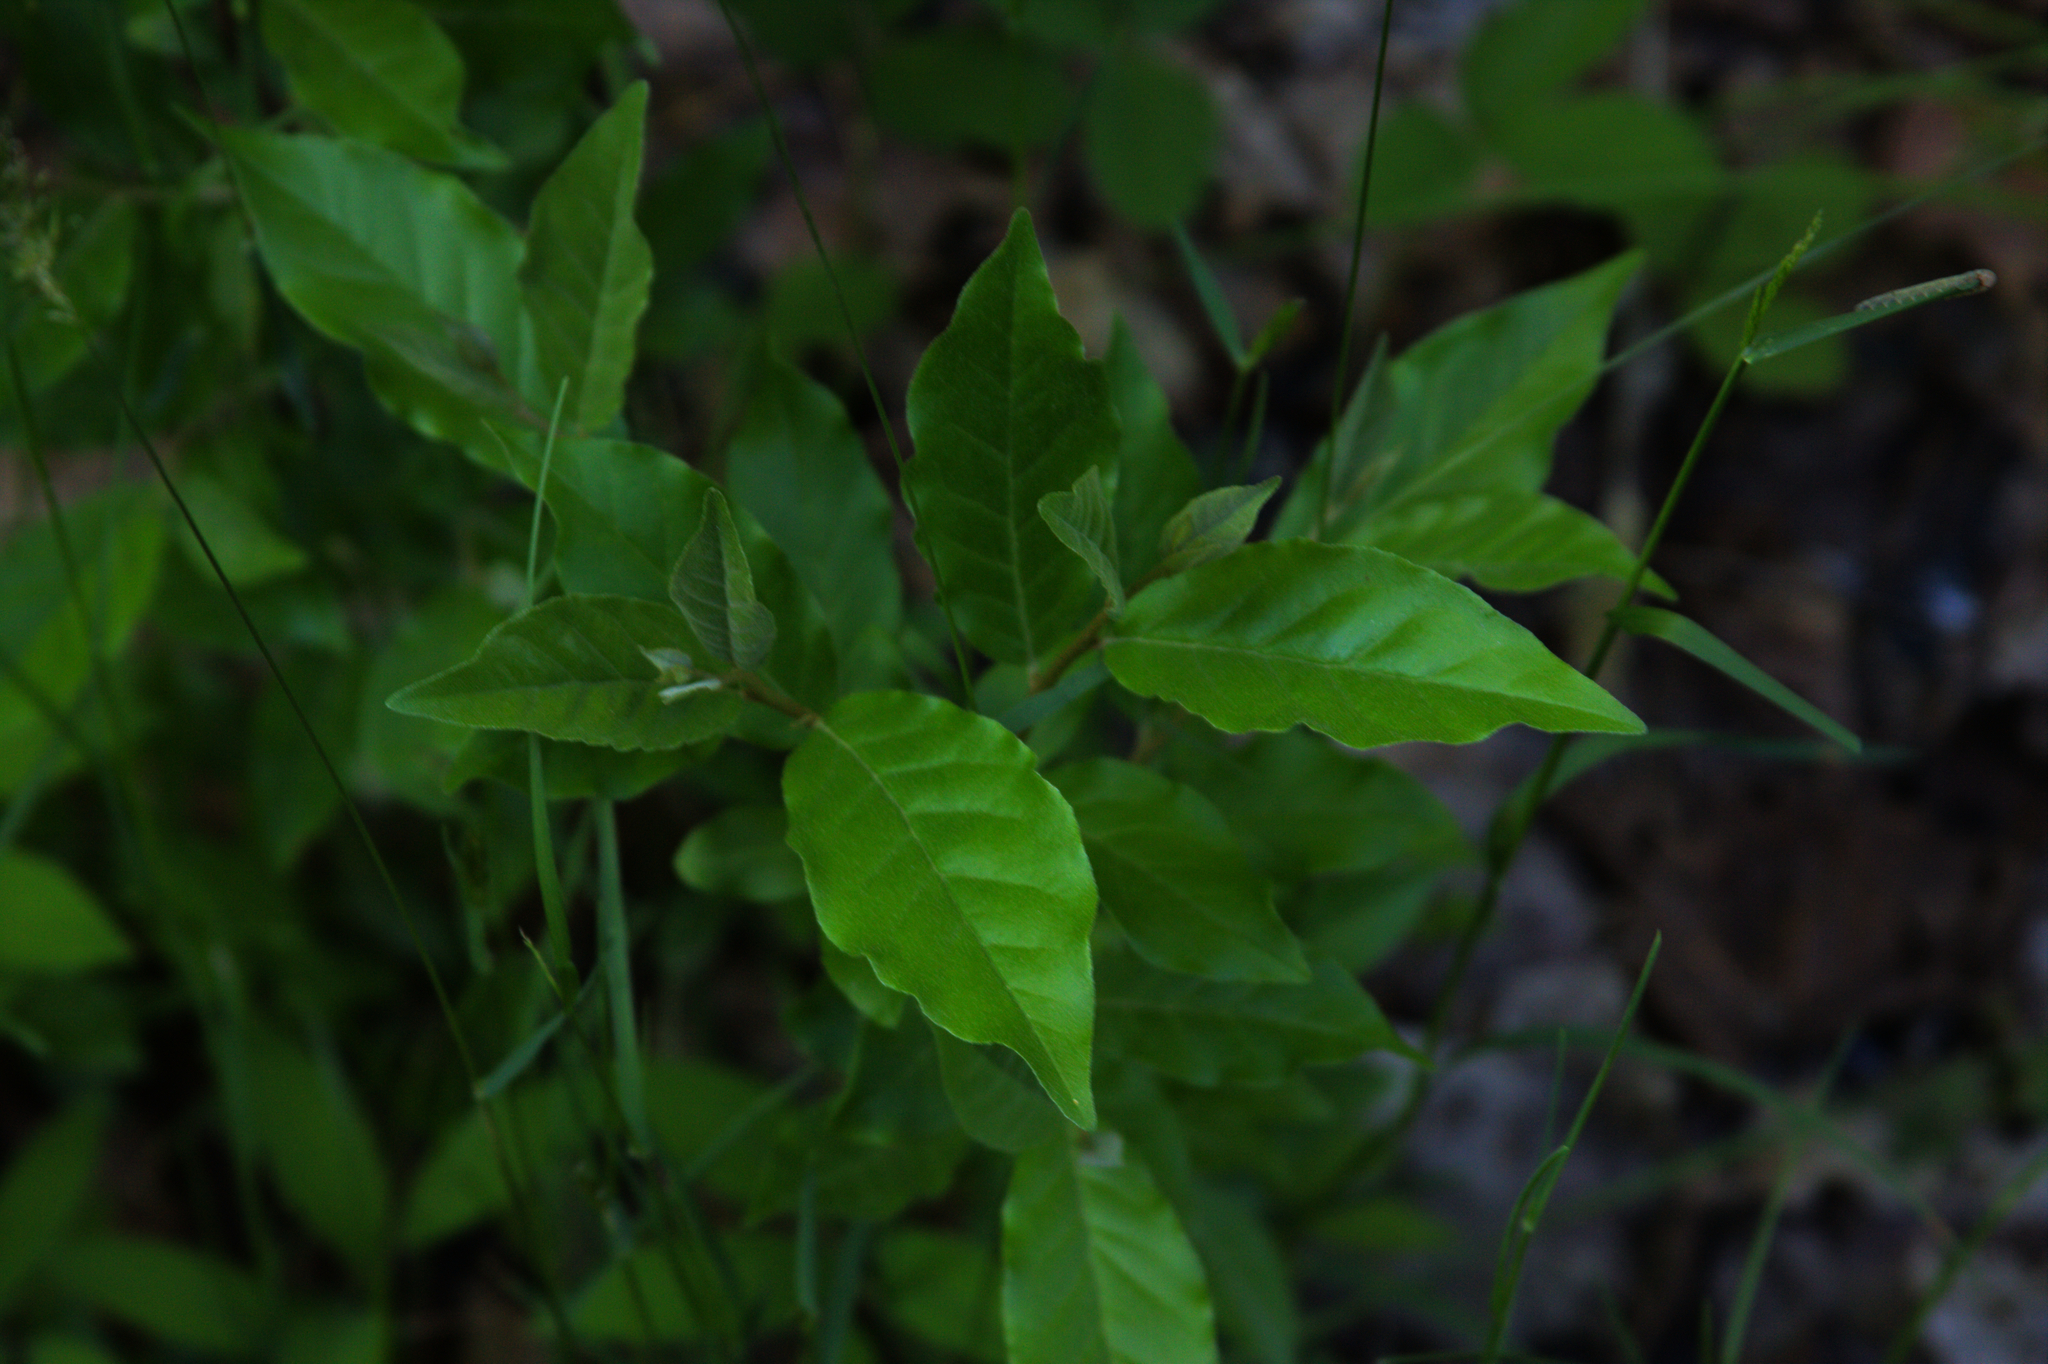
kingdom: Plantae
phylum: Tracheophyta
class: Magnoliopsida
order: Rosales
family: Elaeagnaceae
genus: Elaeagnus
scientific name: Elaeagnus umbellata
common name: Autumn olive
